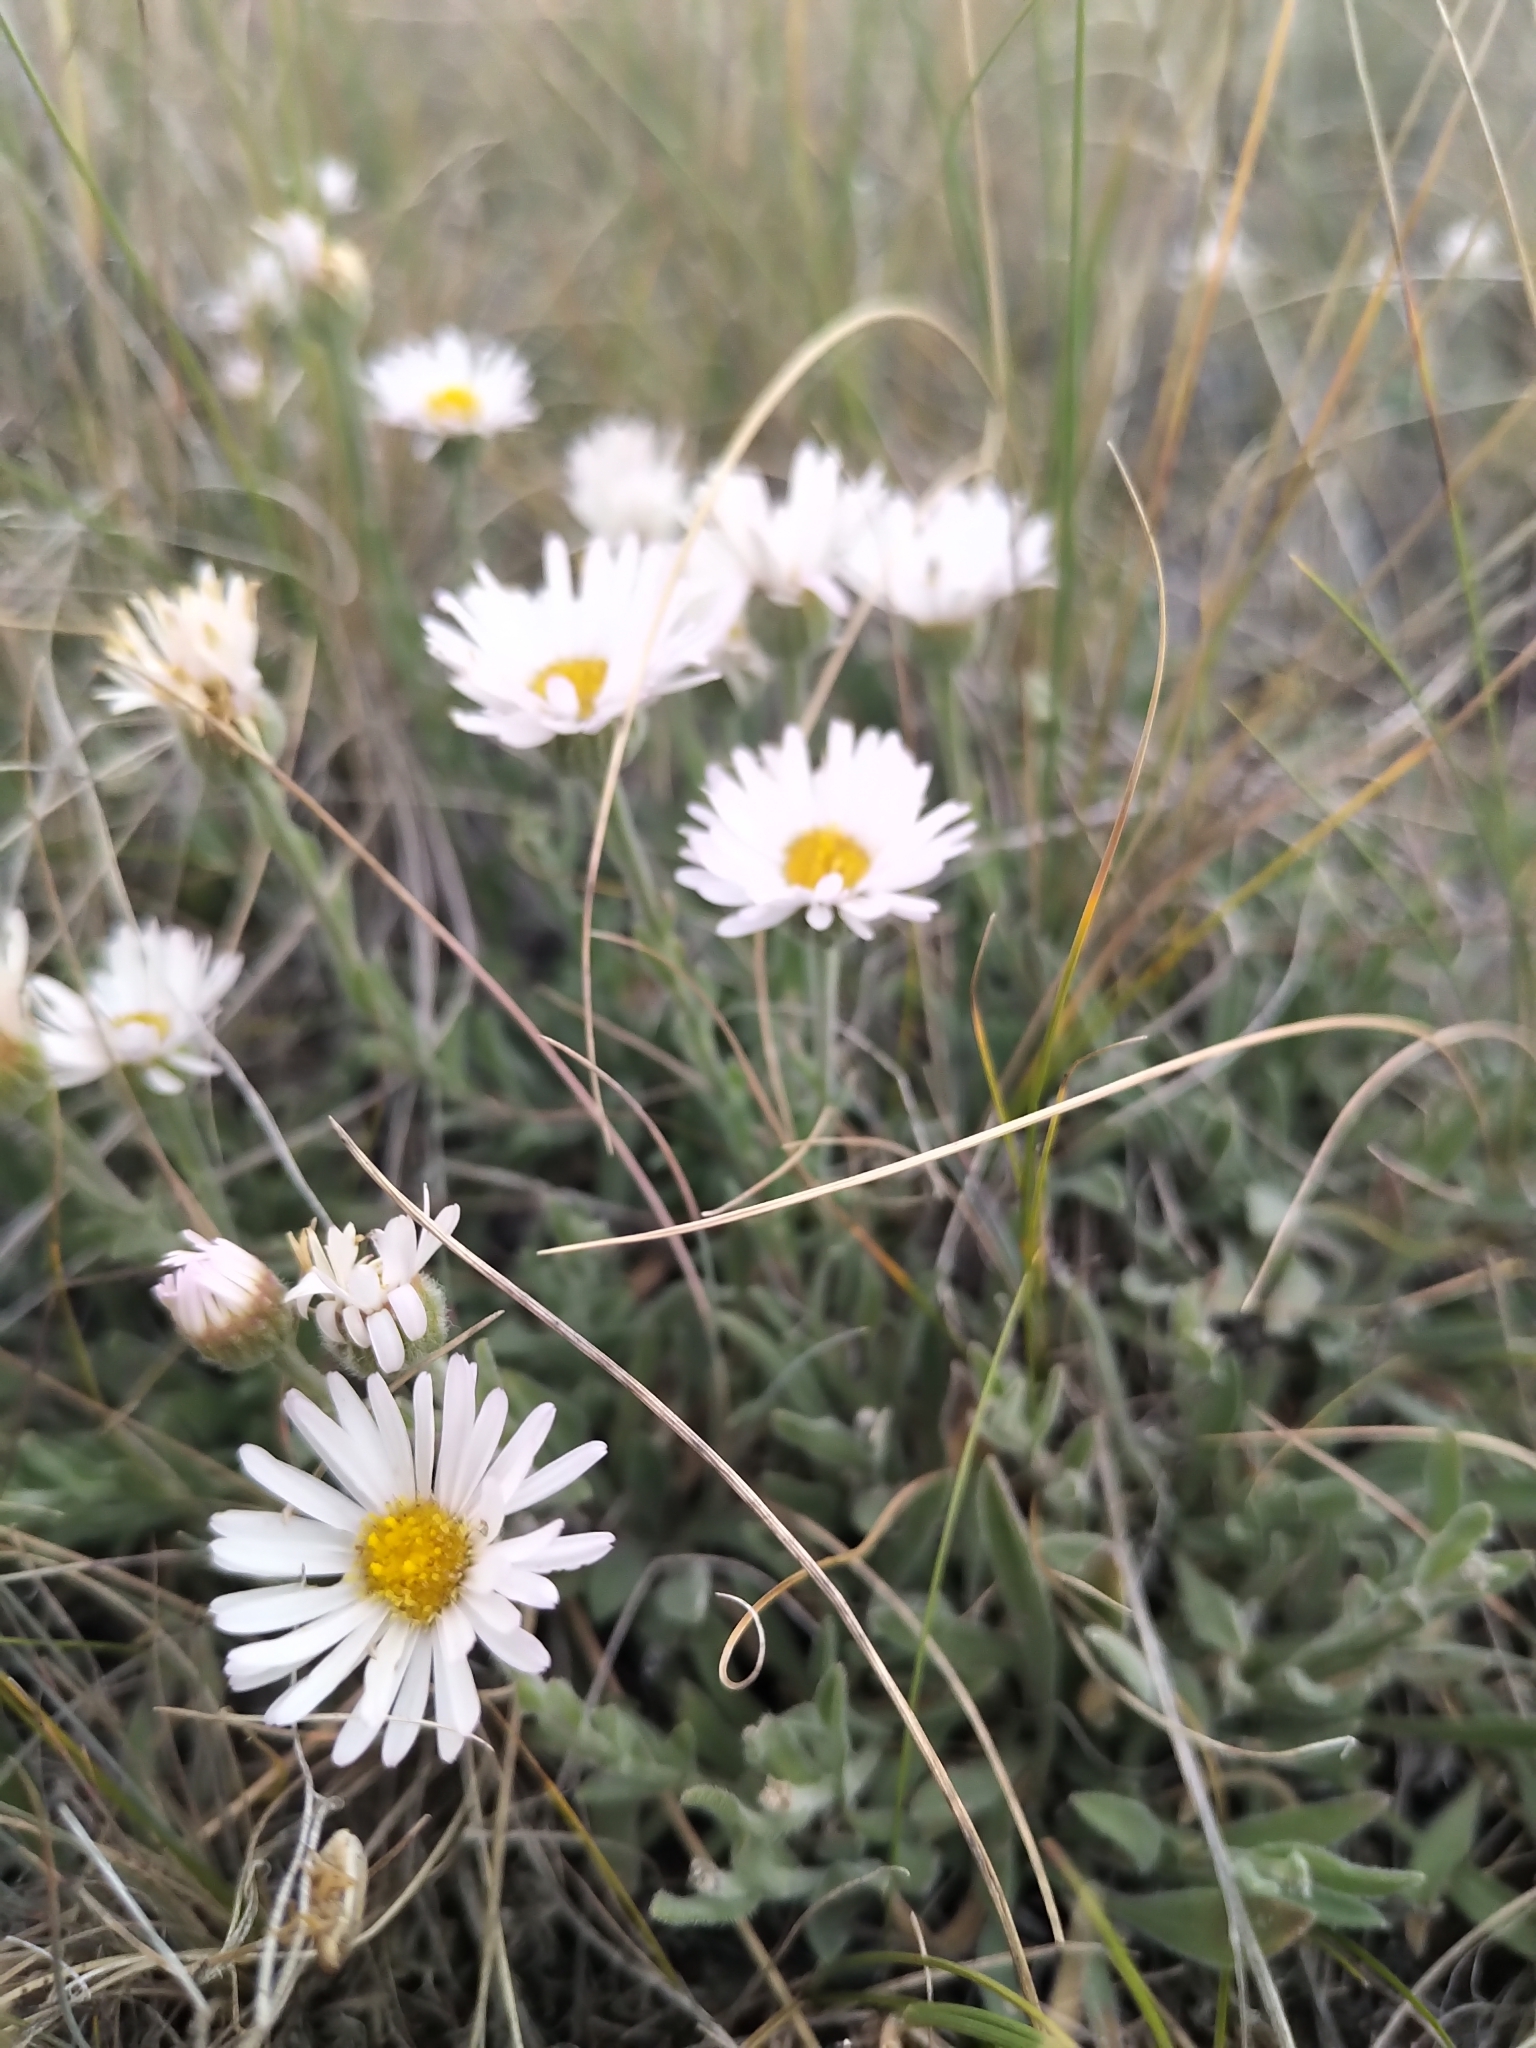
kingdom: Plantae
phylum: Tracheophyta
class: Magnoliopsida
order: Asterales
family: Asteraceae
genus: Erigeron
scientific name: Erigeron caespitosus
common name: Tufted fleabane
